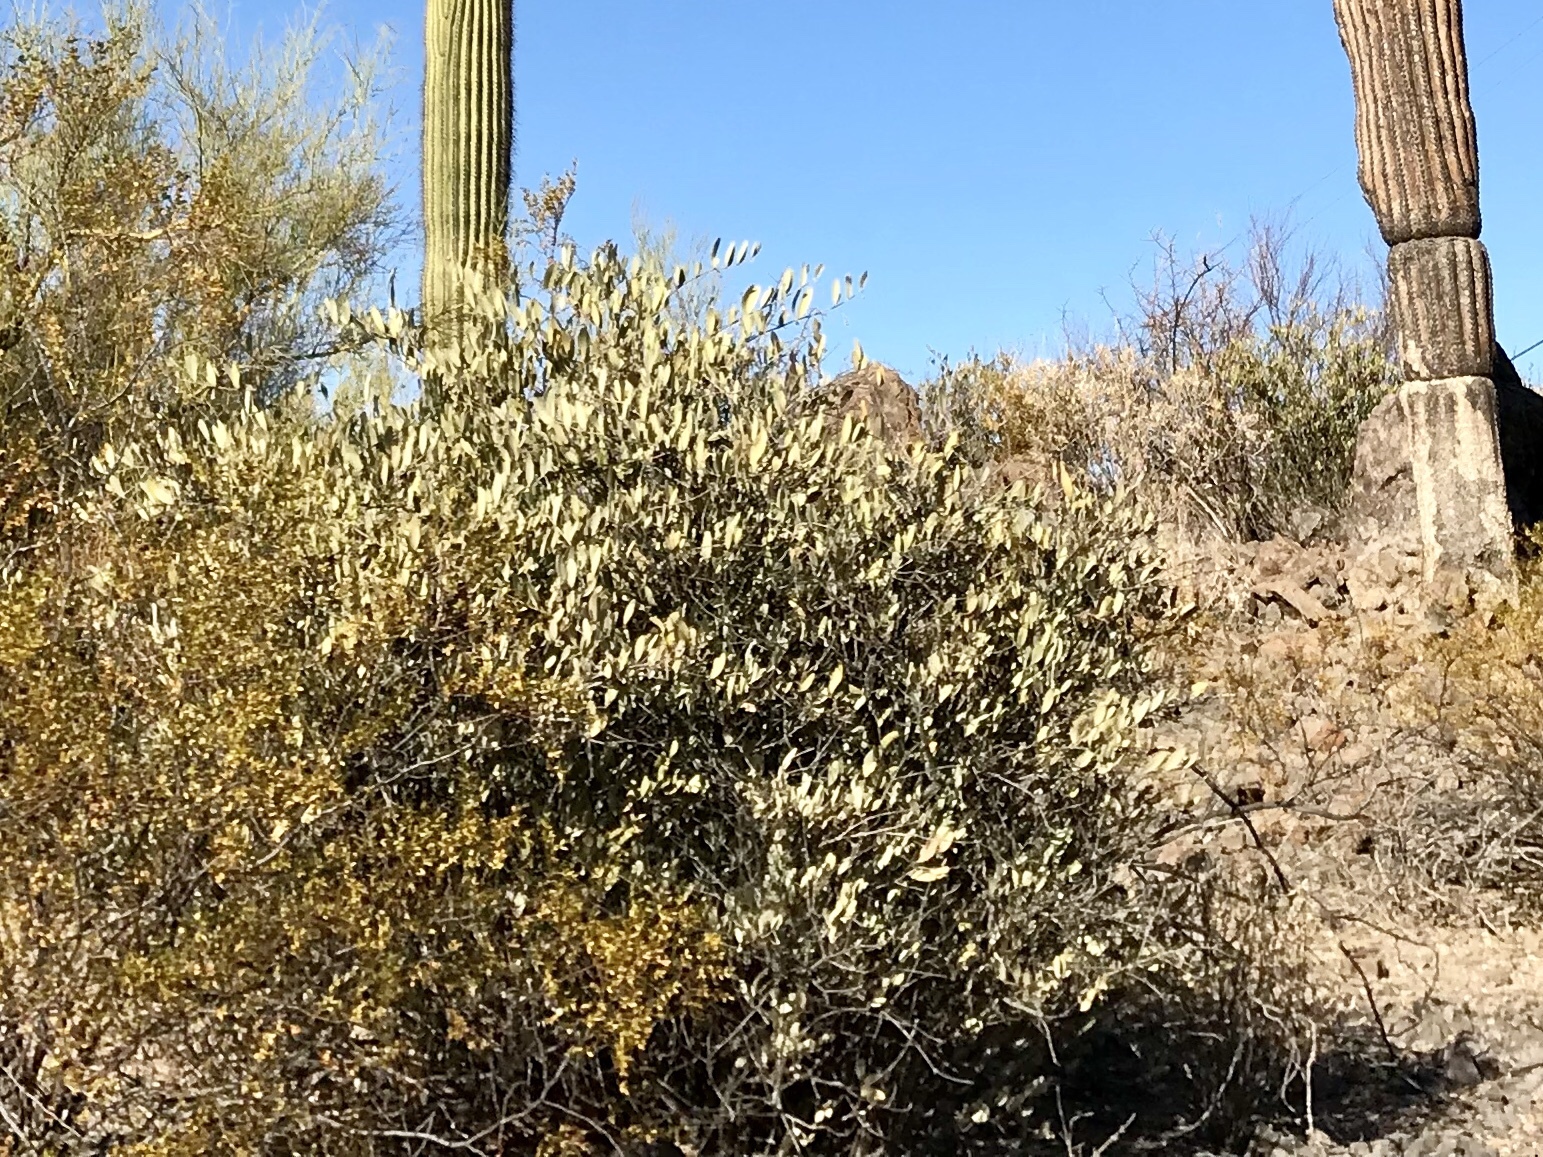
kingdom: Plantae
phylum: Tracheophyta
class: Magnoliopsida
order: Caryophyllales
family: Simmondsiaceae
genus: Simmondsia
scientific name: Simmondsia chinensis
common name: Jojoba
